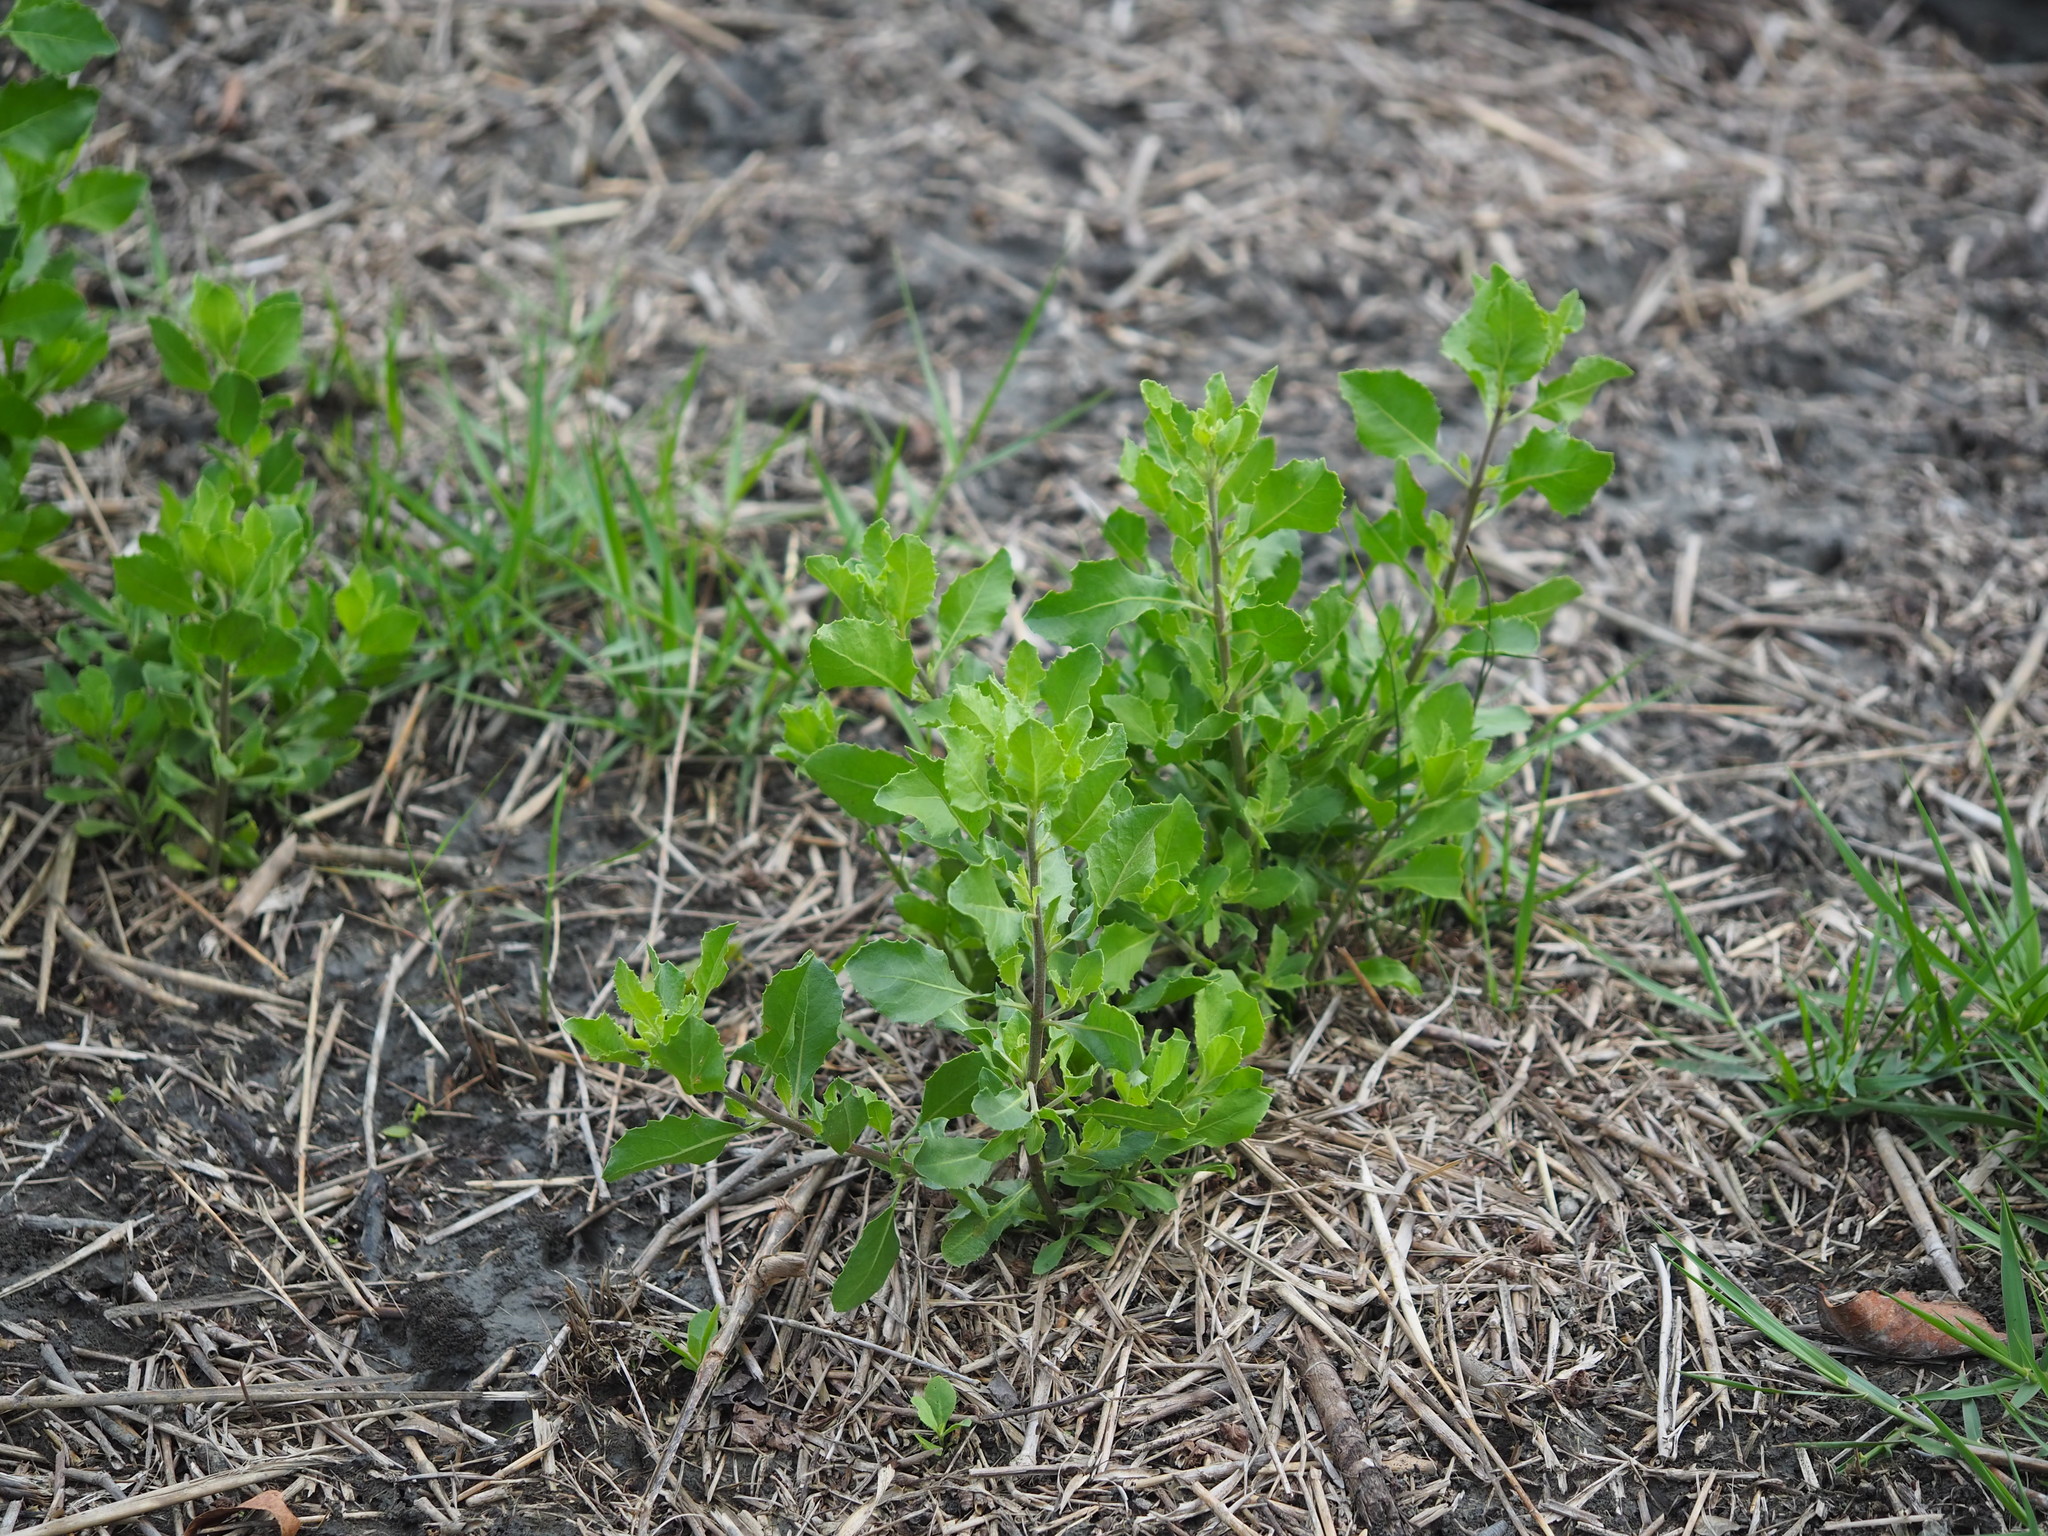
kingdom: Plantae
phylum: Tracheophyta
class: Magnoliopsida
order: Asterales
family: Asteraceae
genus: Pluchea
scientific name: Pluchea indica
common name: Indian fleabane
